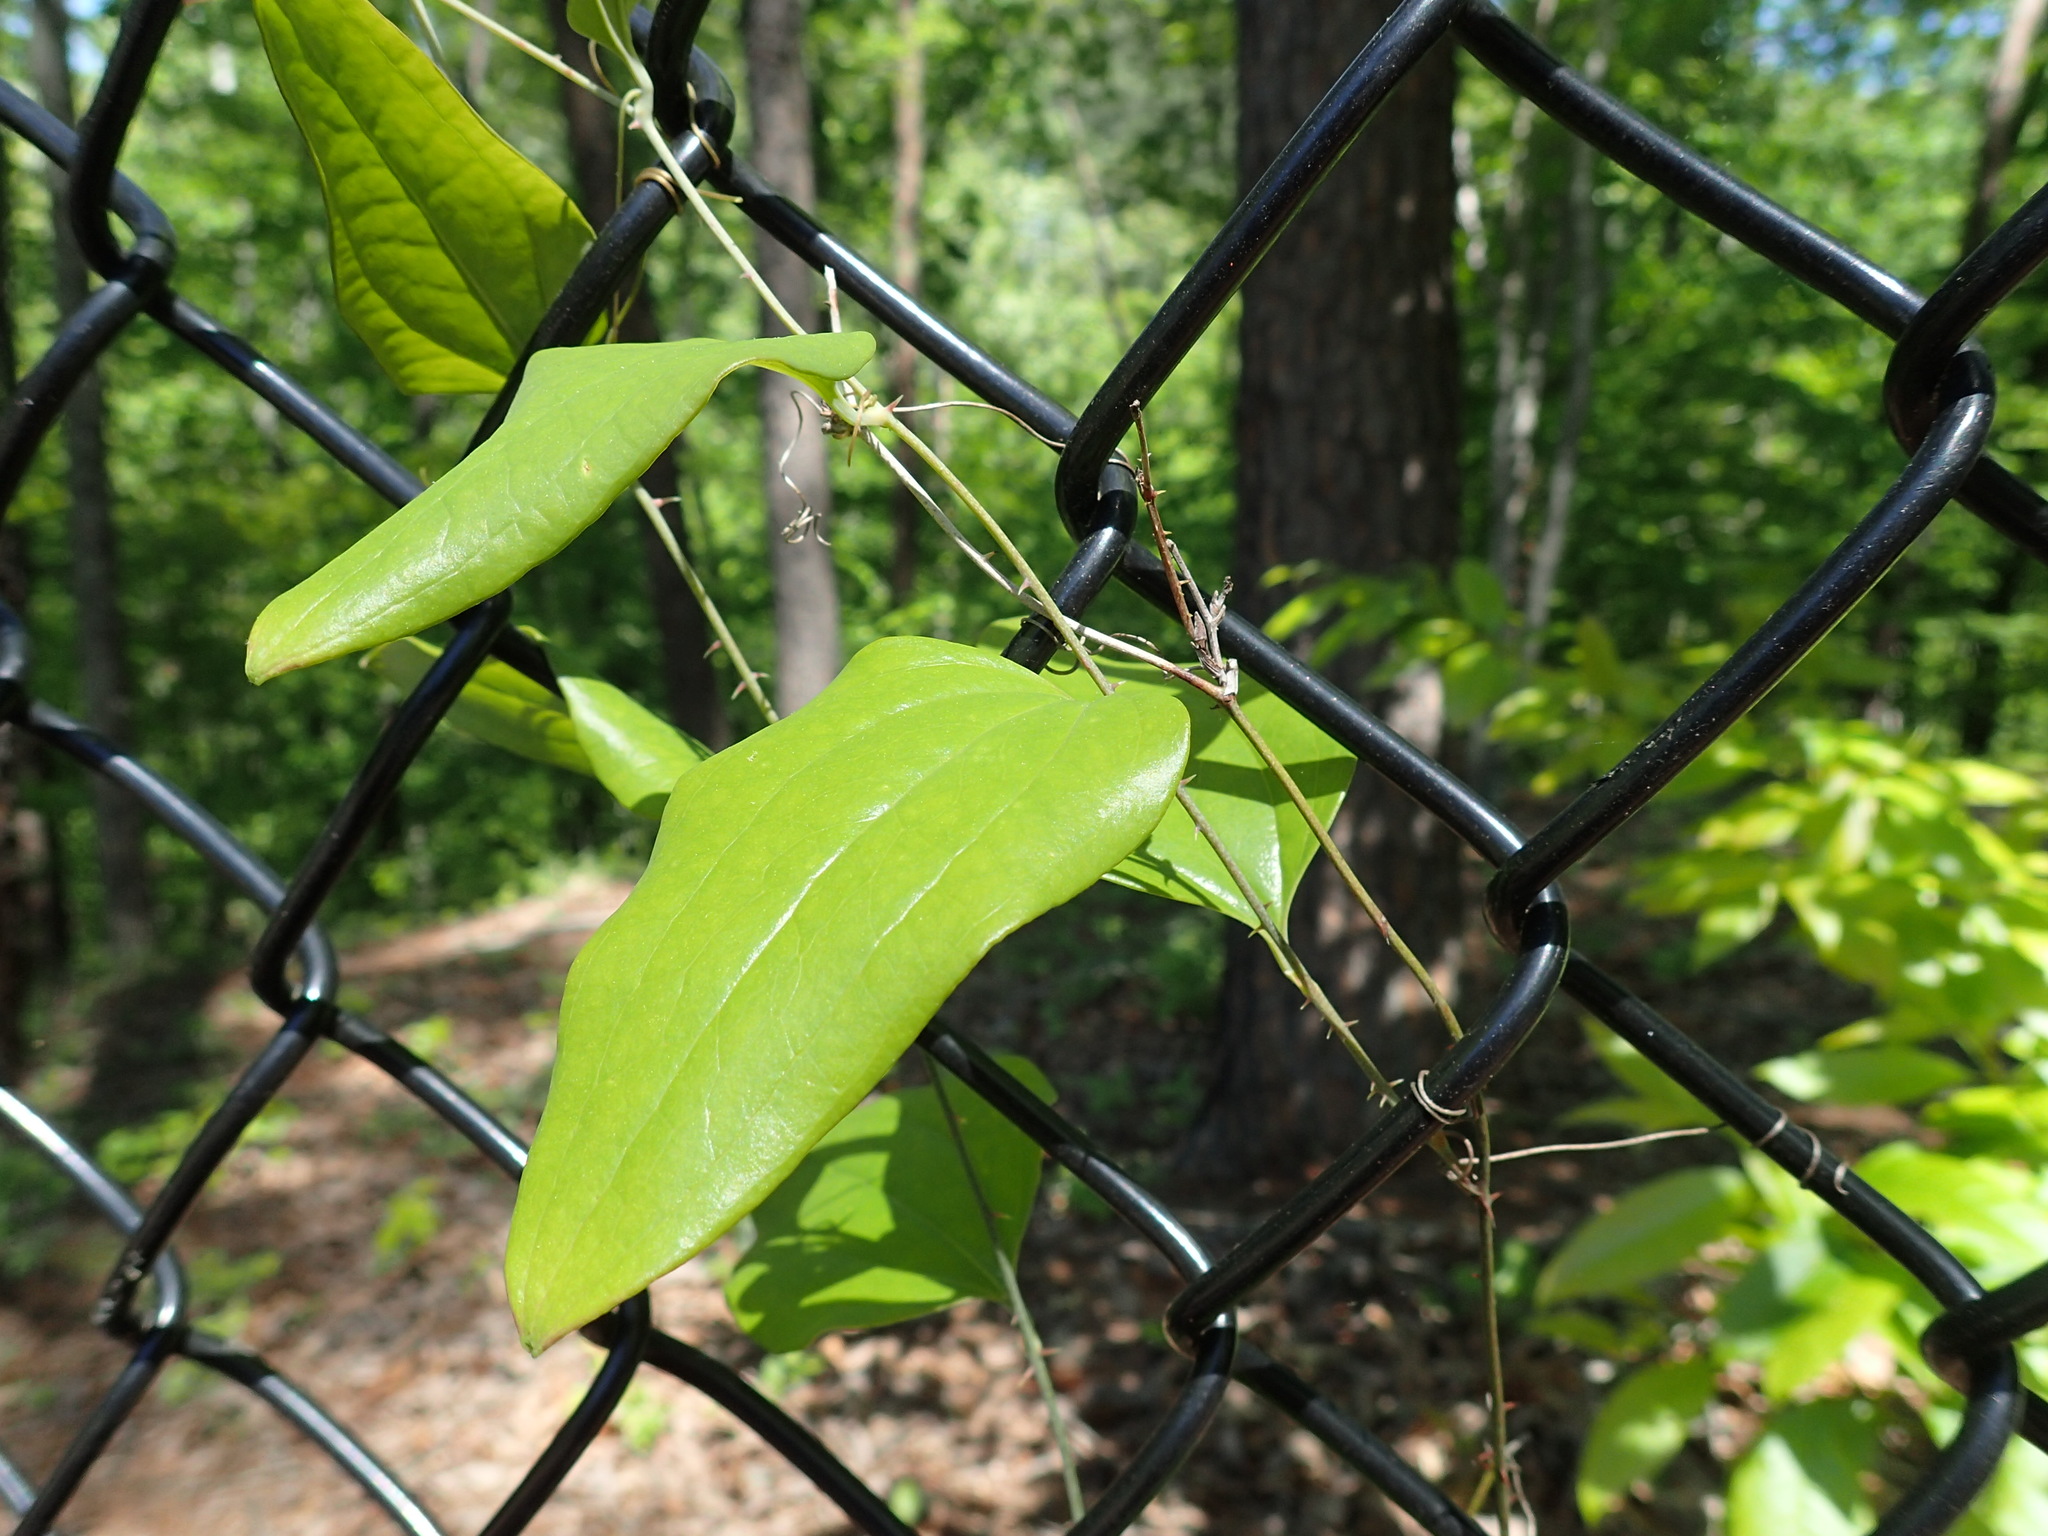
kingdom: Plantae
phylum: Tracheophyta
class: Liliopsida
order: Liliales
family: Smilacaceae
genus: Smilax
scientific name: Smilax glauca
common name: Cat greenbrier
